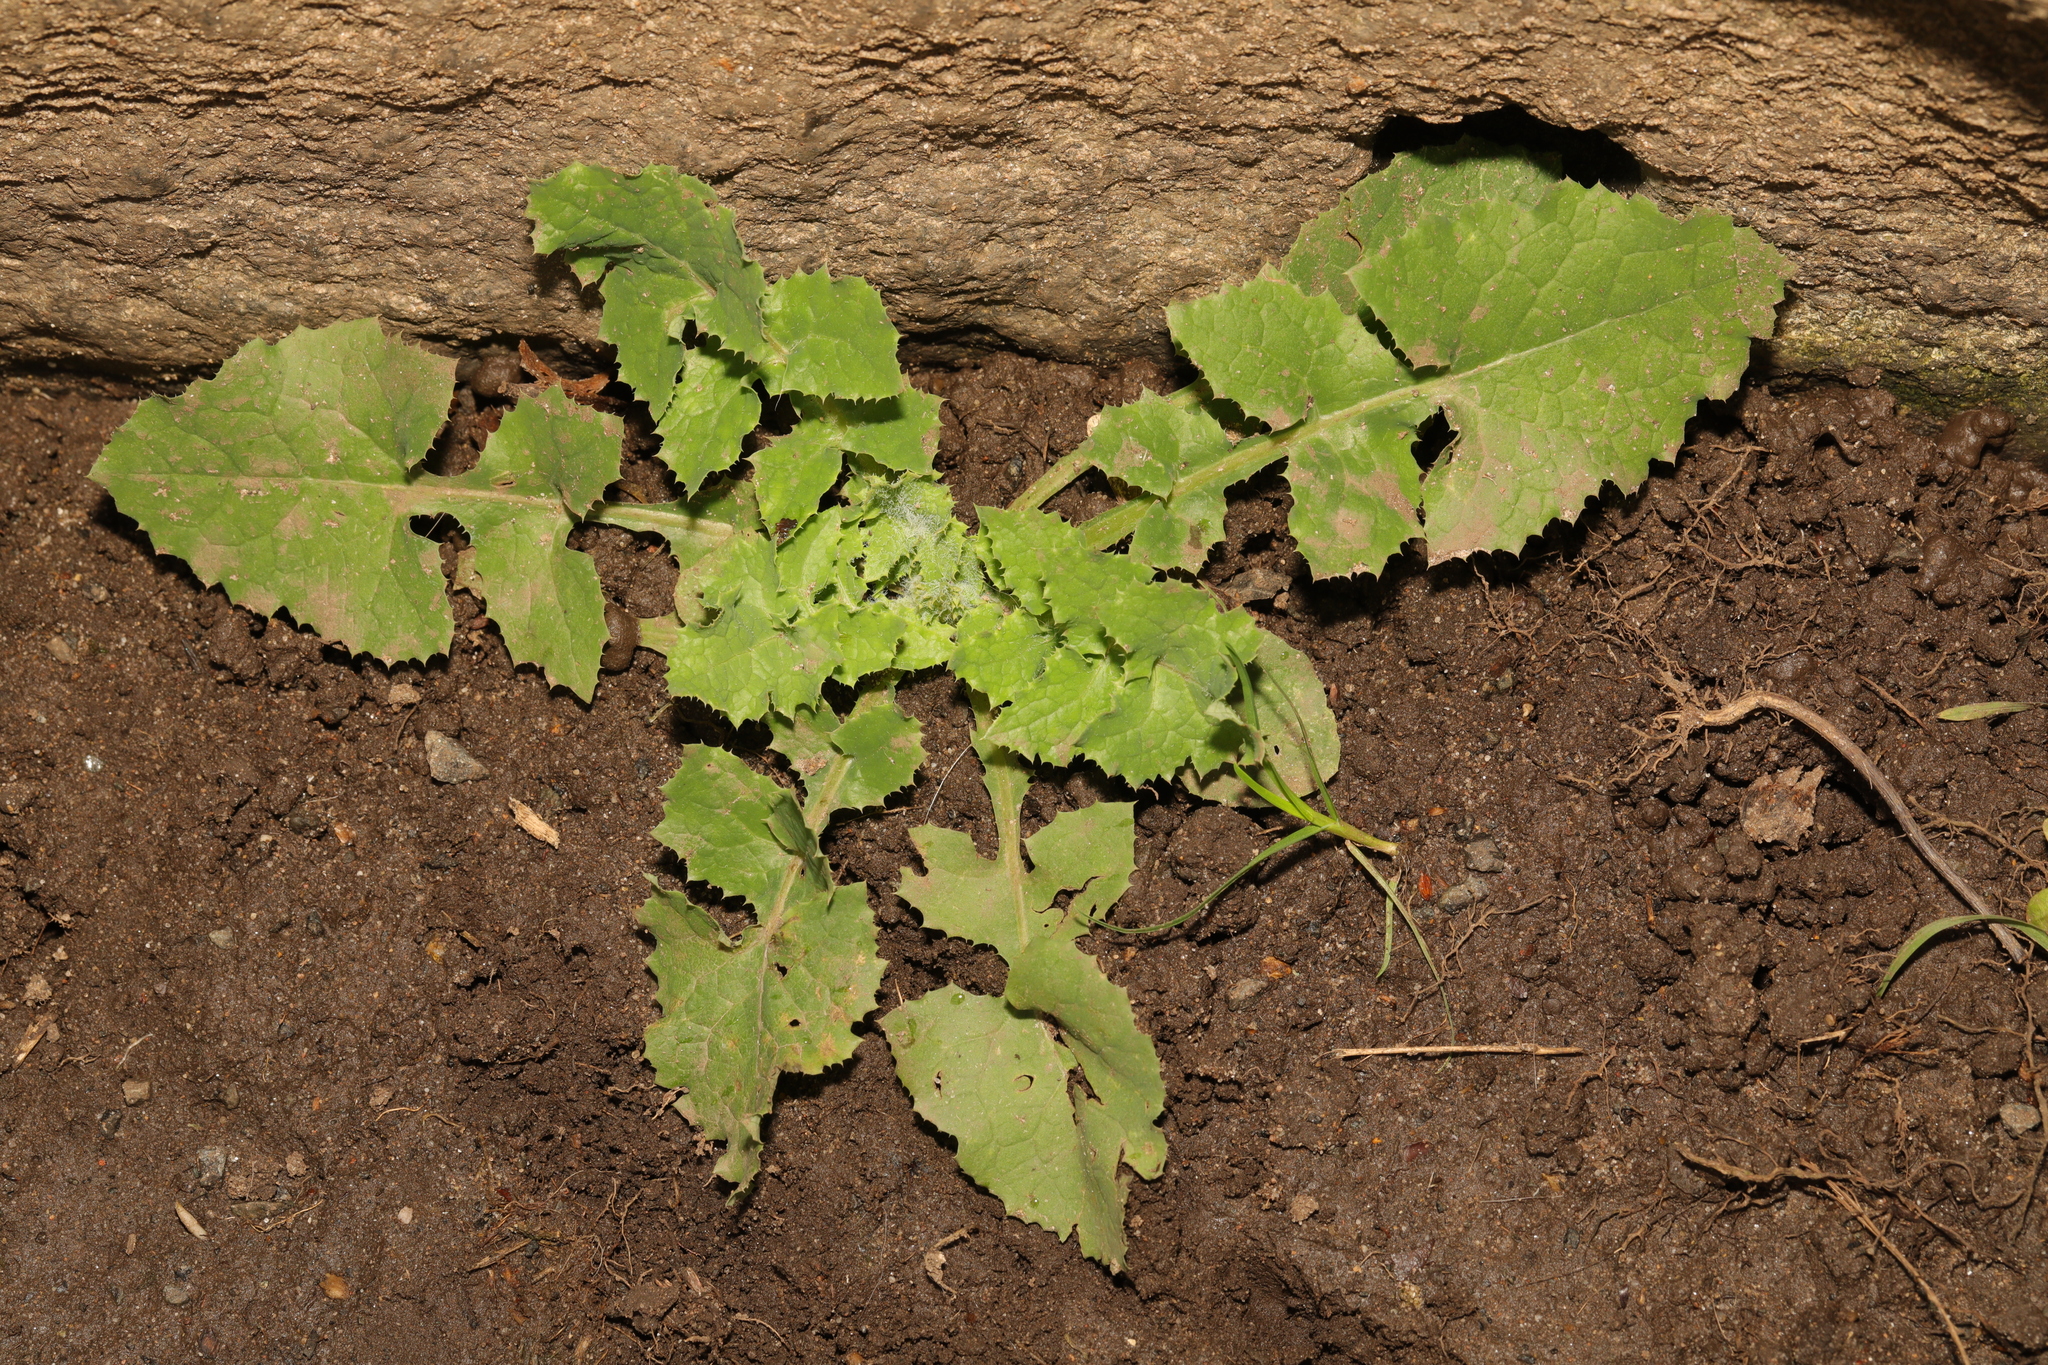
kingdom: Plantae
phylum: Tracheophyta
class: Magnoliopsida
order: Asterales
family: Asteraceae
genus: Sonchus
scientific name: Sonchus oleraceus
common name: Common sowthistle
